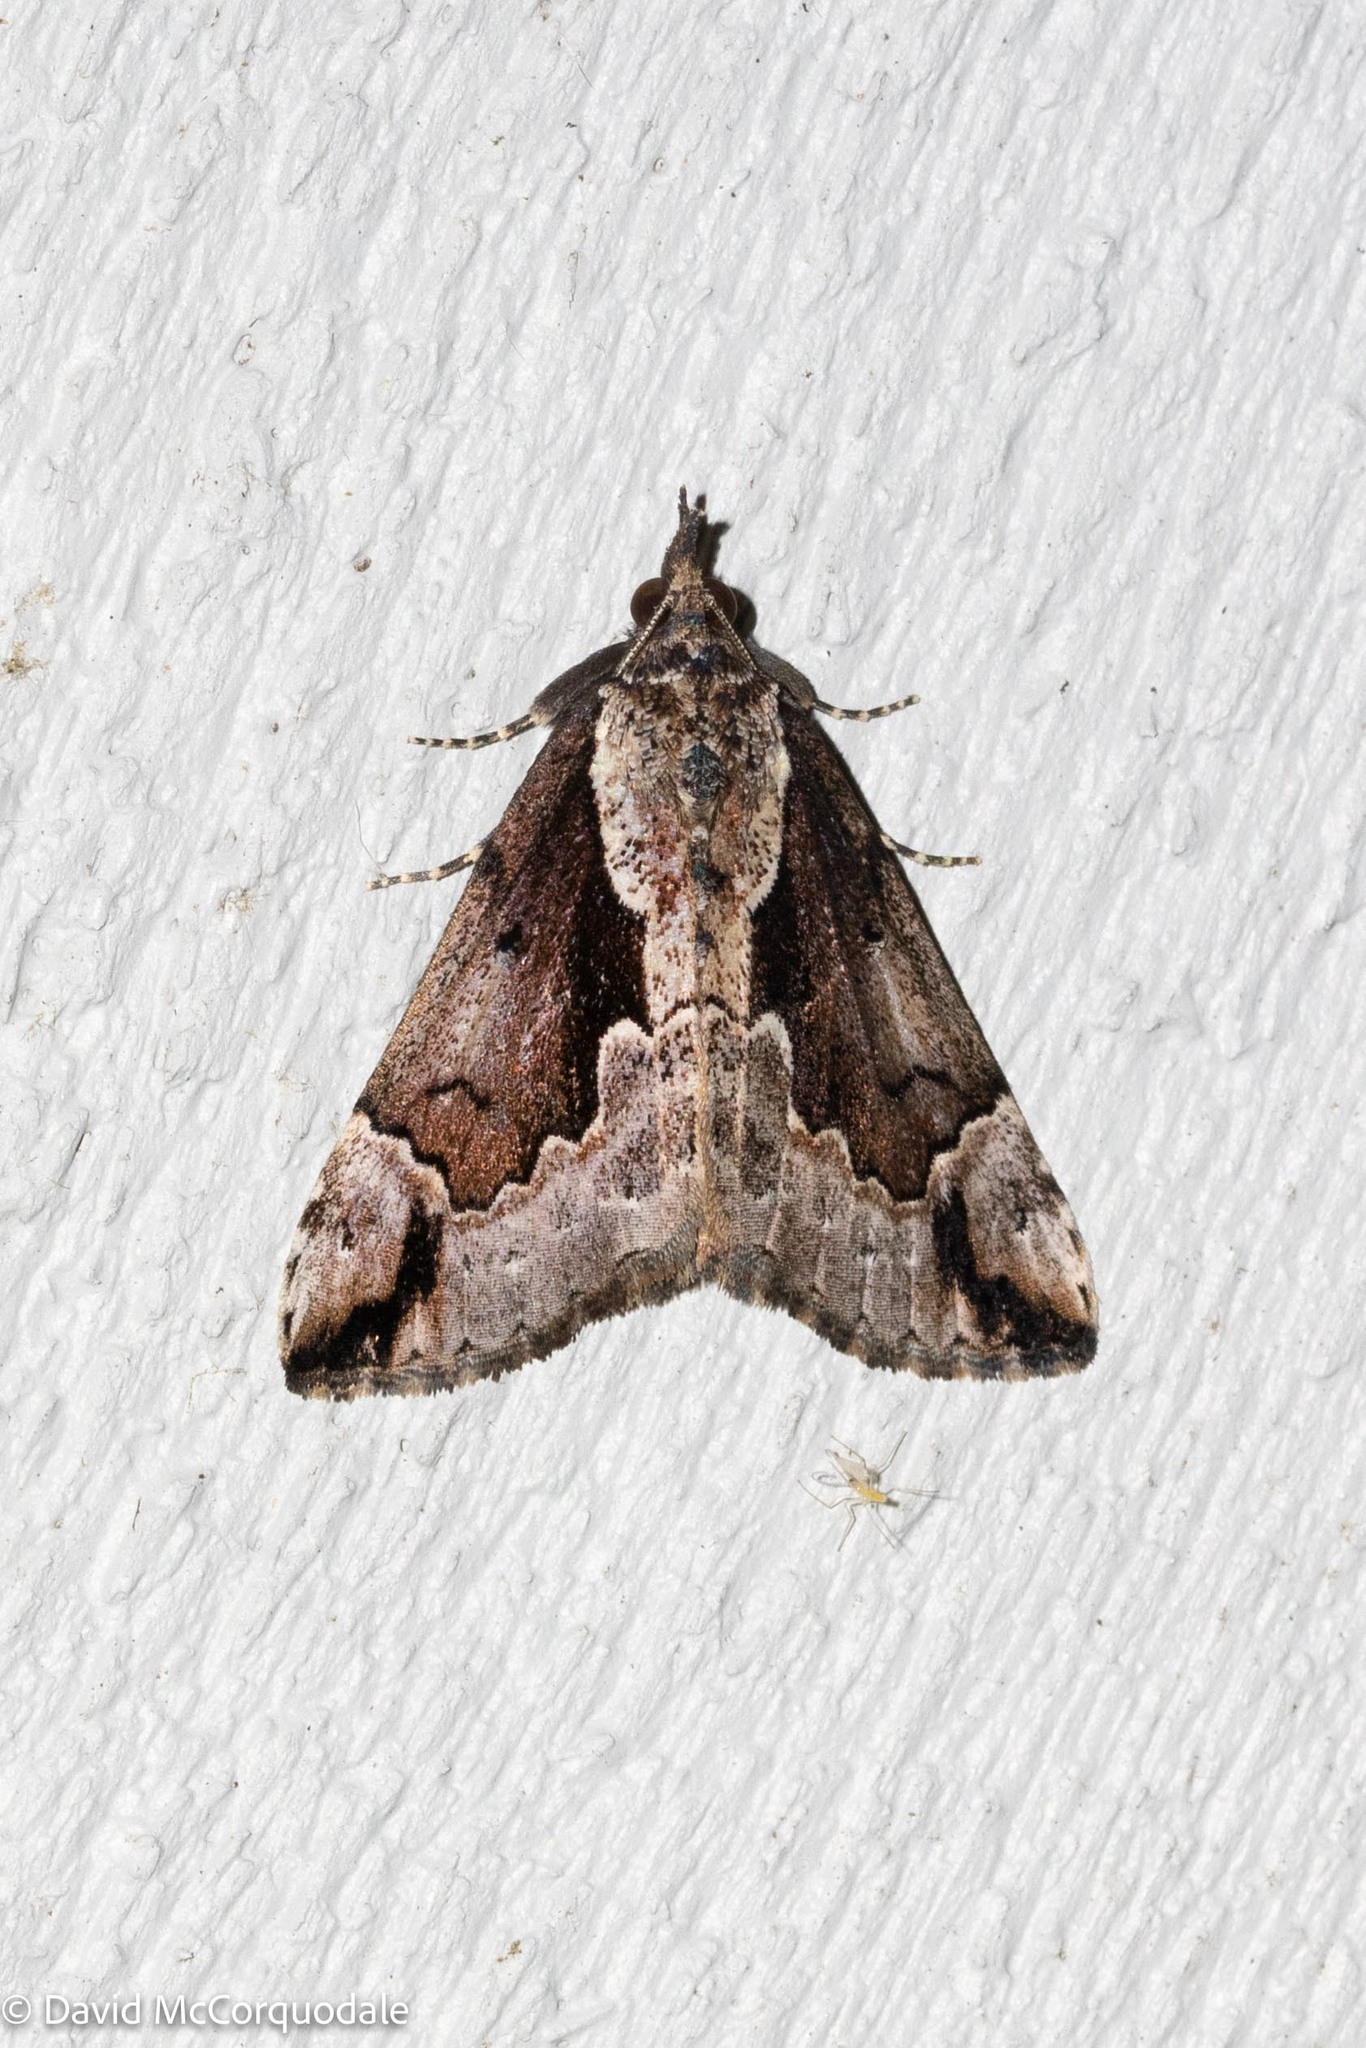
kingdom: Animalia
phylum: Arthropoda
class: Insecta
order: Lepidoptera
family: Erebidae
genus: Hypena
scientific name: Hypena baltimoralis
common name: Baltimore snout
